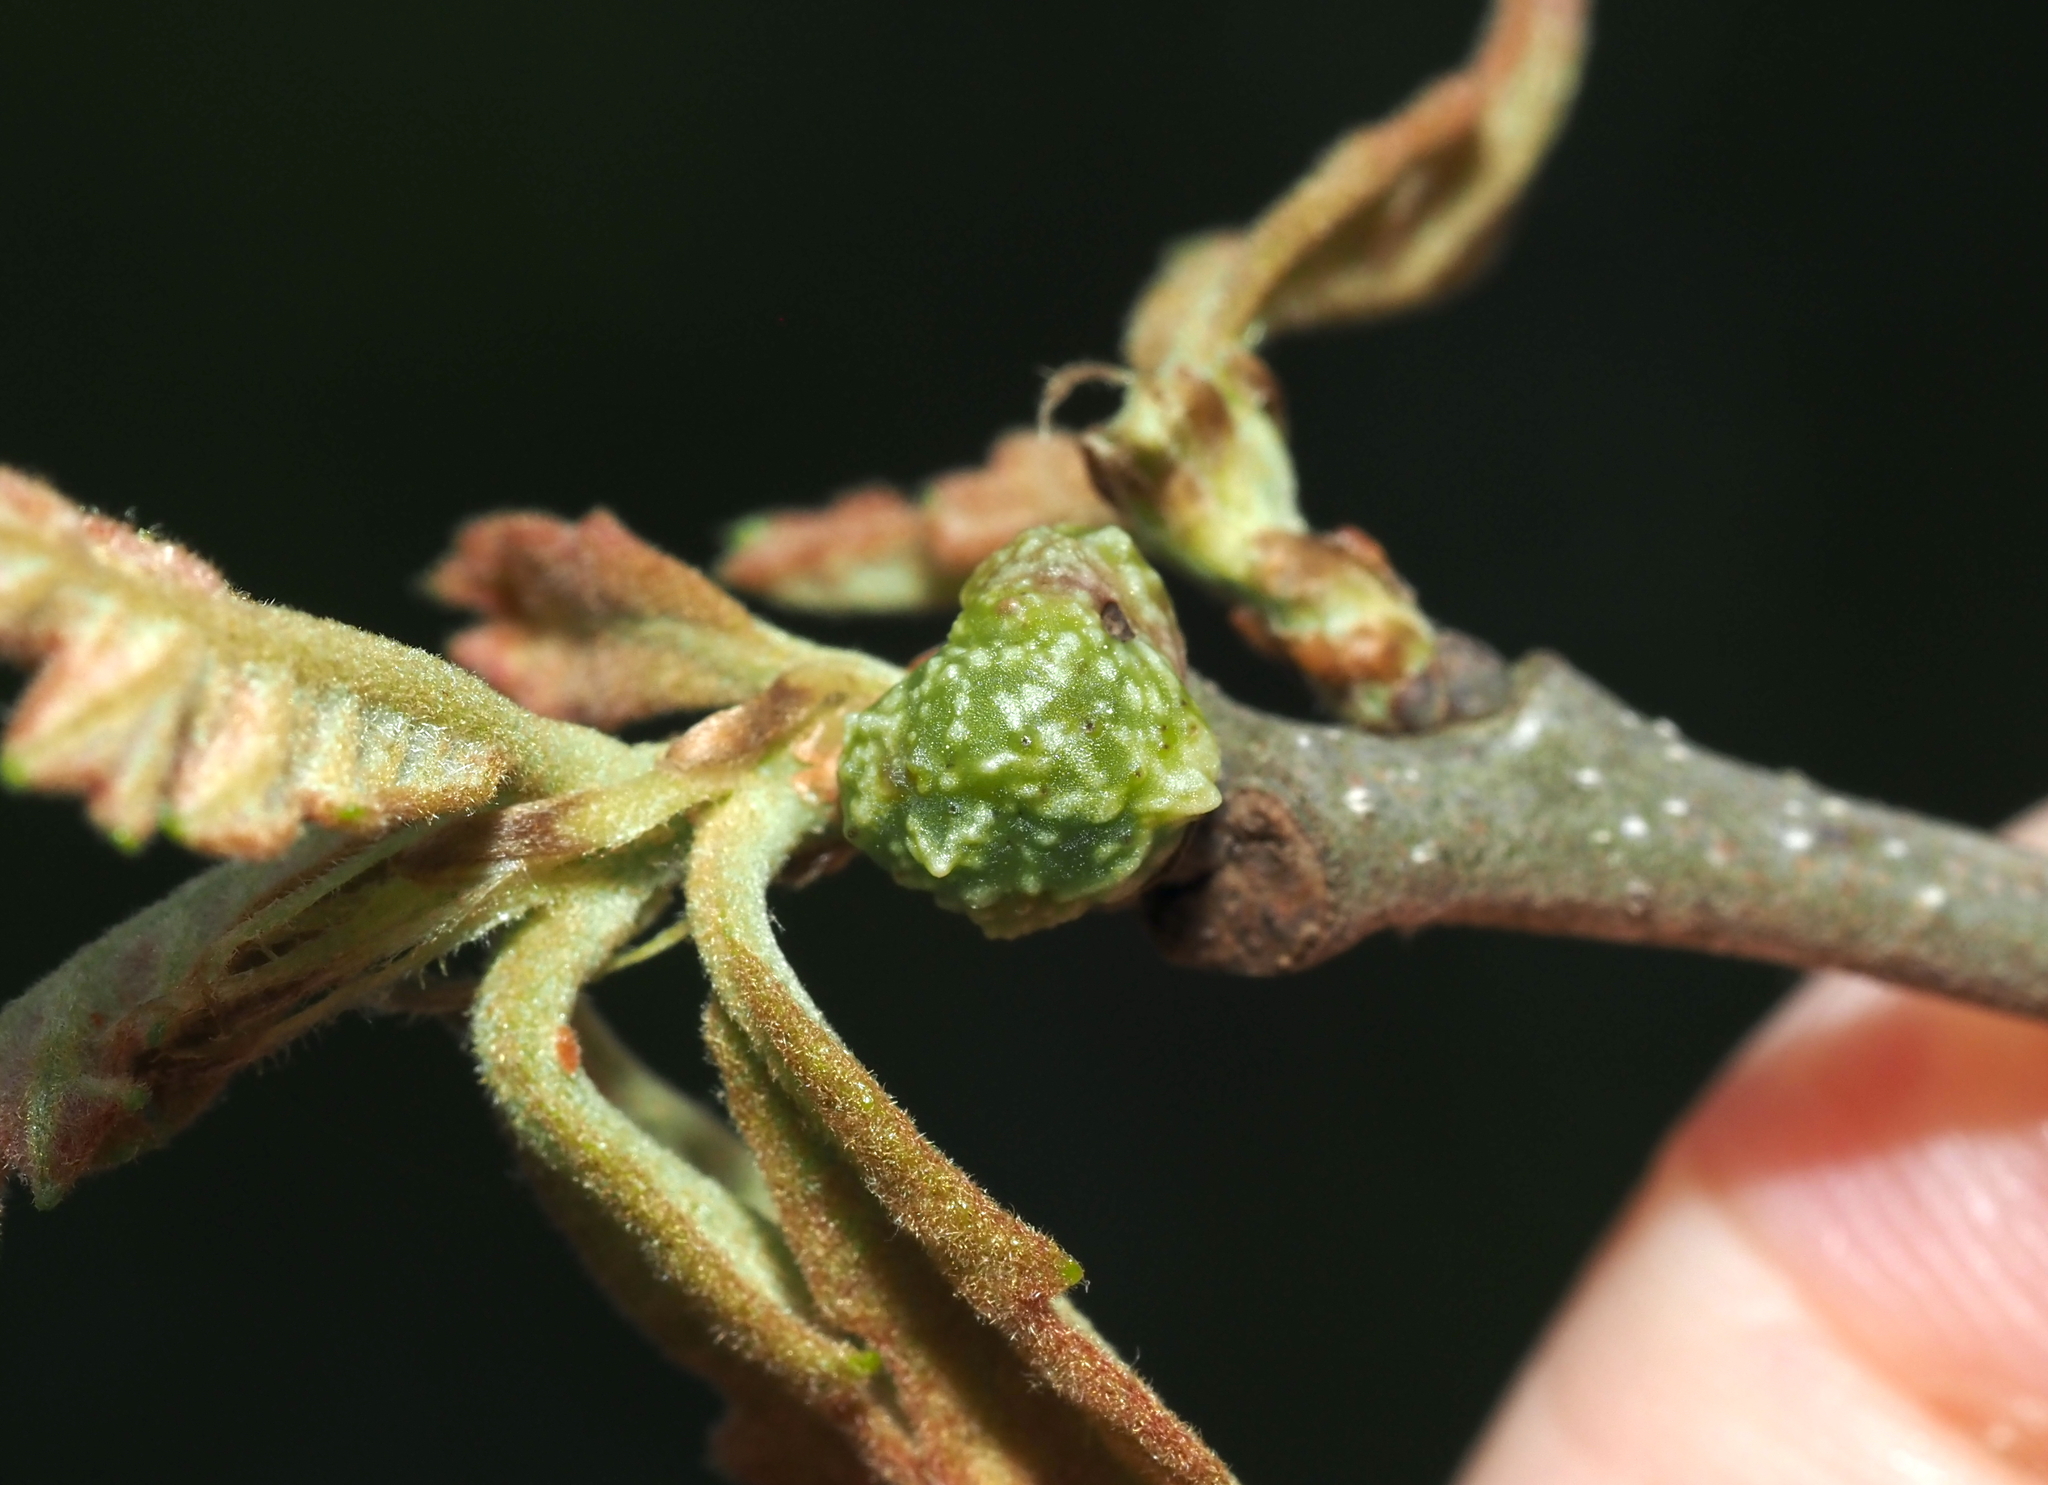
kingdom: Animalia
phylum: Arthropoda
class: Insecta
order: Hymenoptera
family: Cynipidae
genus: Andricus
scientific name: Andricus
